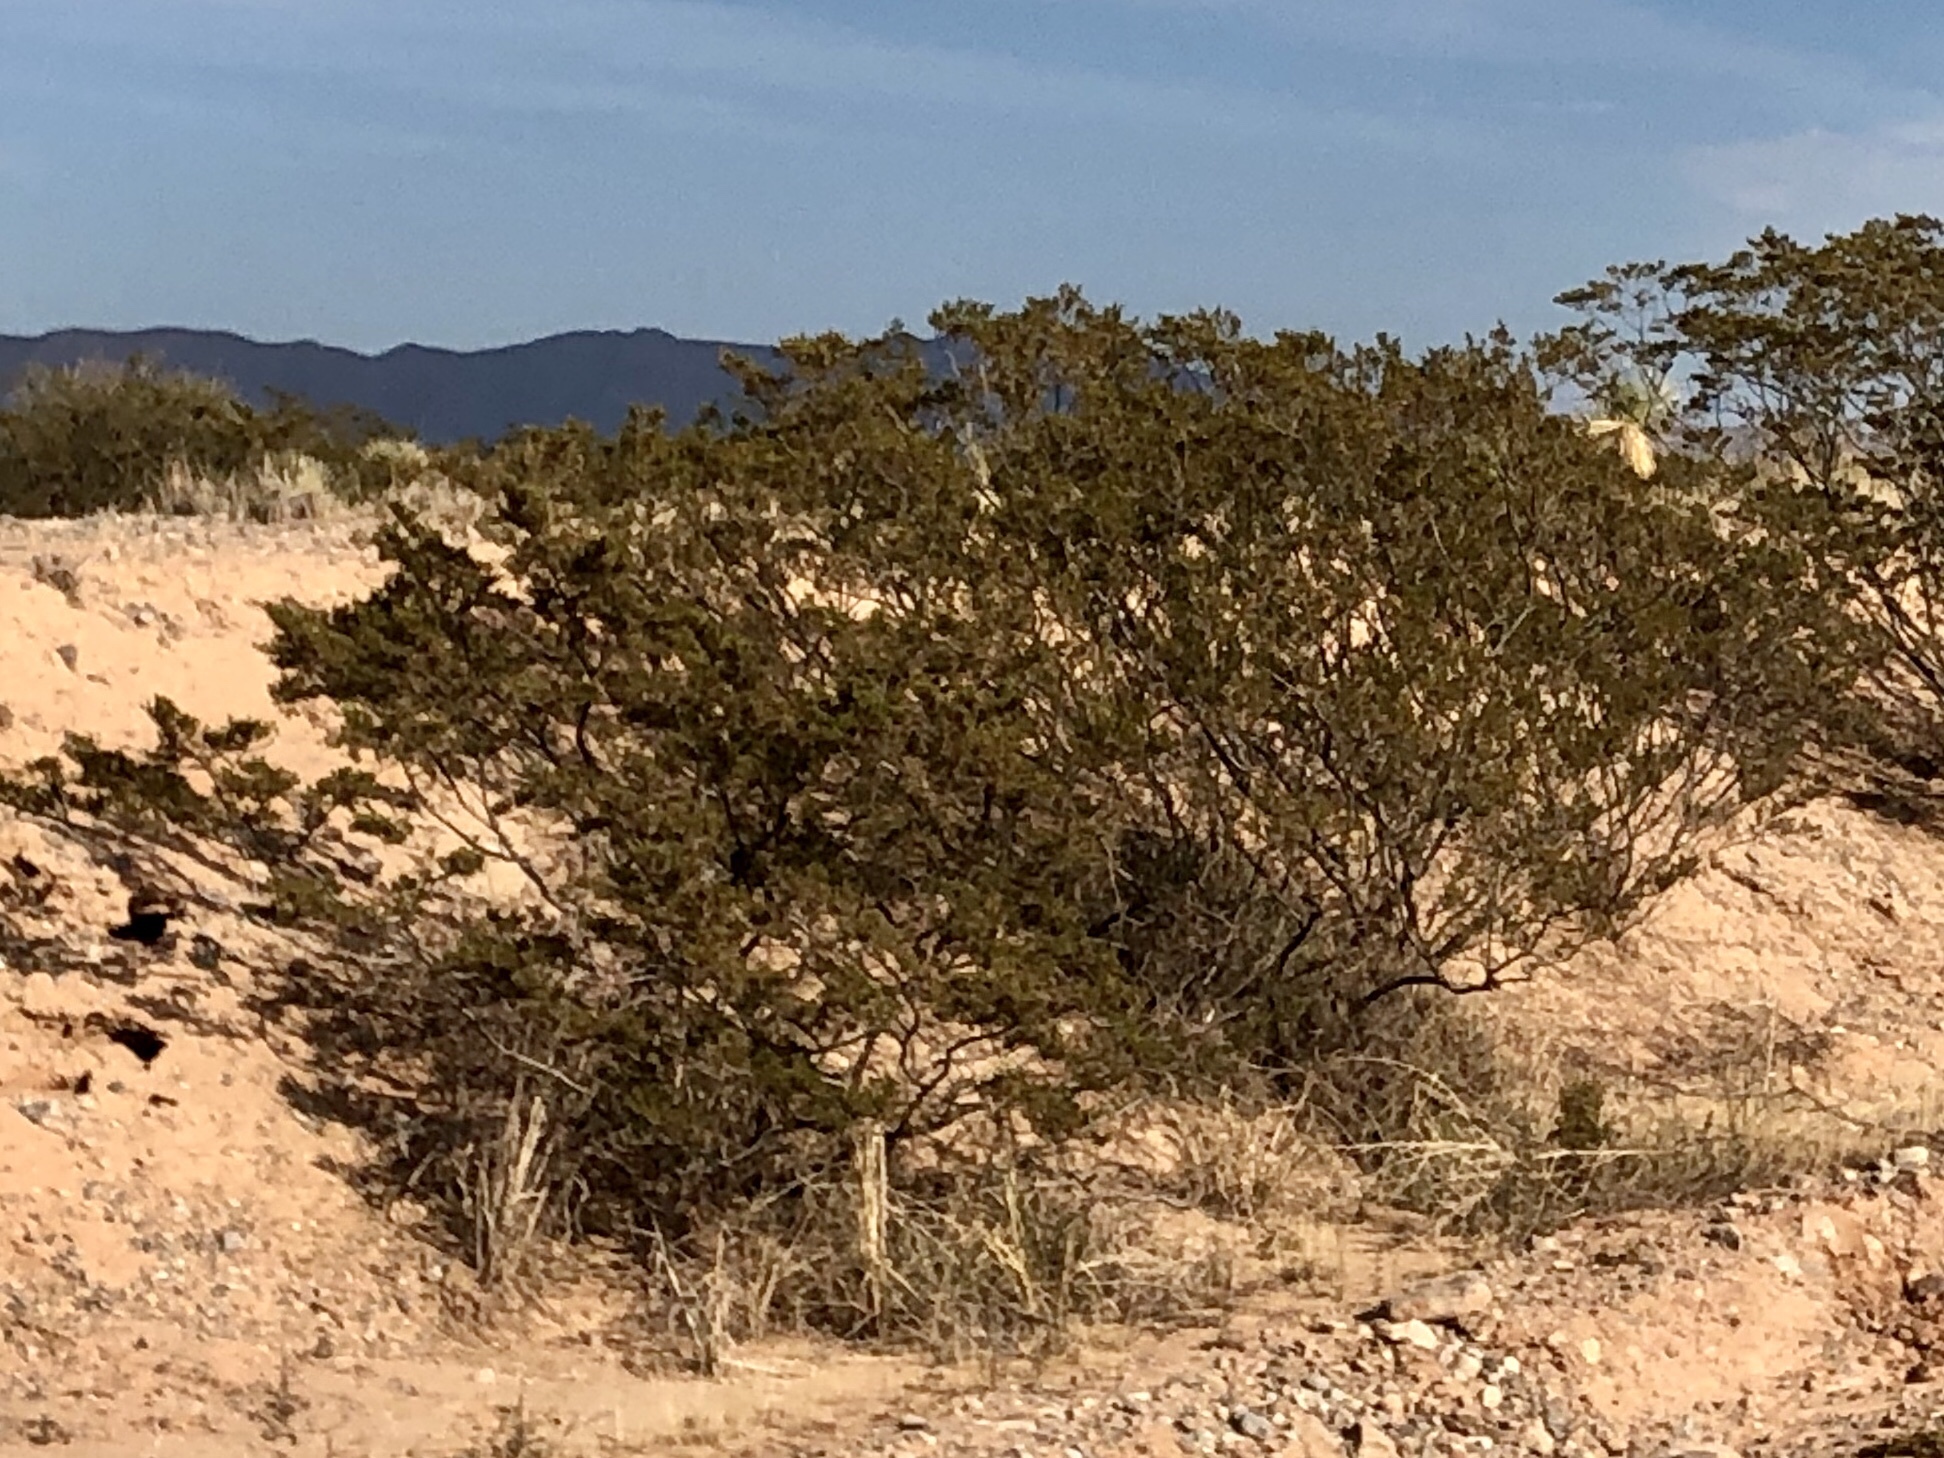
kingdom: Plantae
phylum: Tracheophyta
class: Magnoliopsida
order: Zygophyllales
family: Zygophyllaceae
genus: Larrea
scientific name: Larrea tridentata
